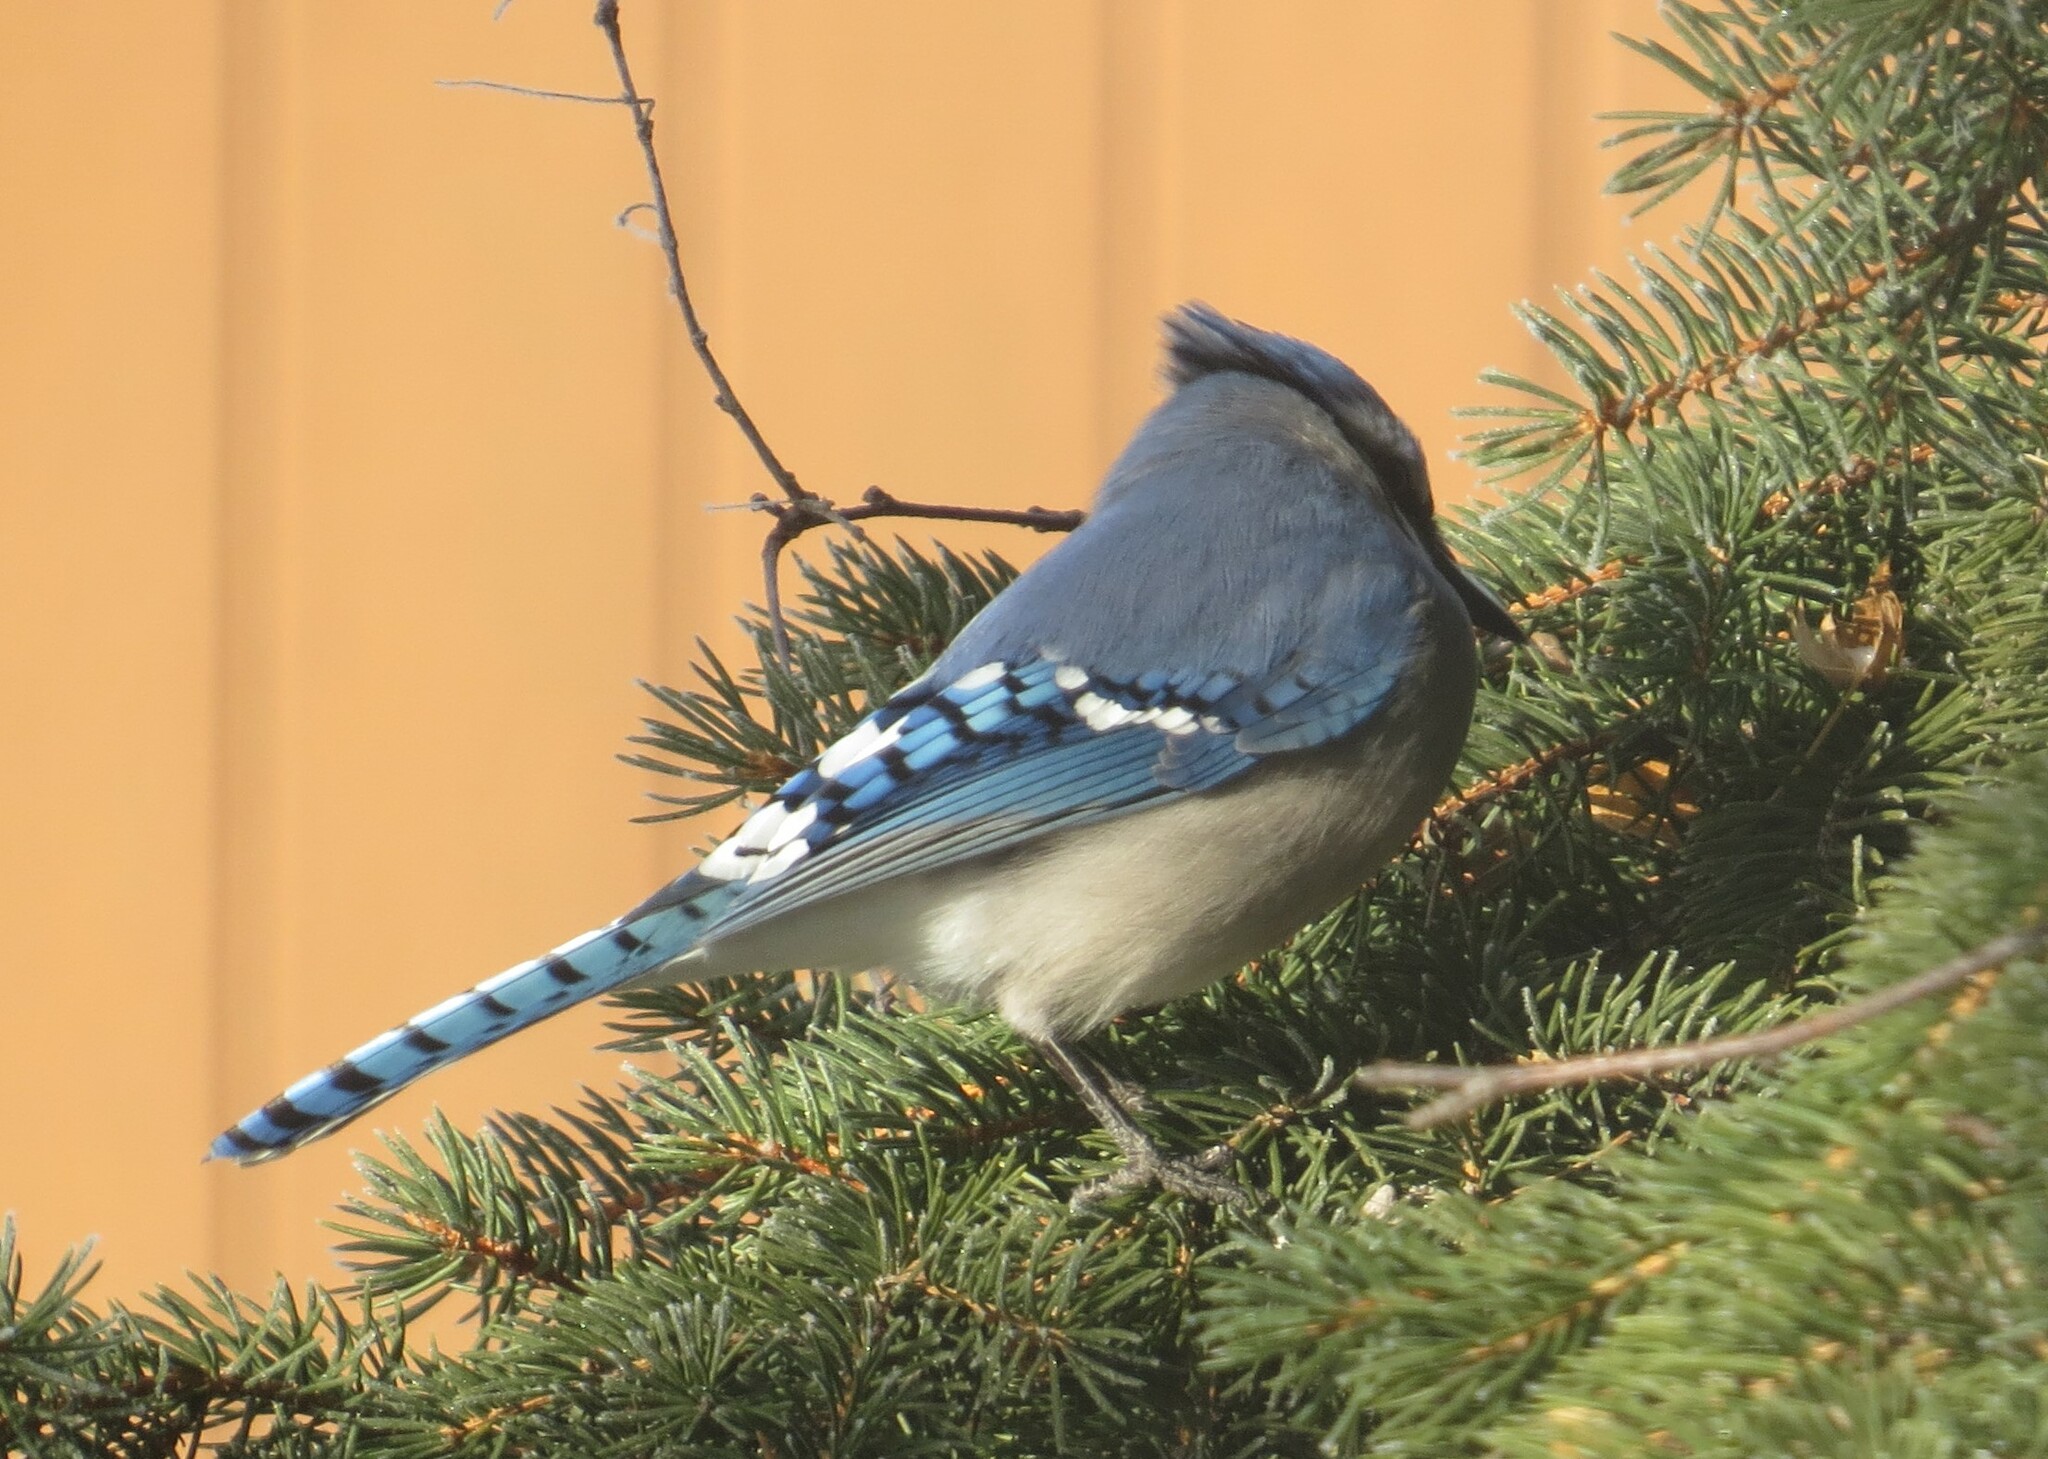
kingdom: Animalia
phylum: Chordata
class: Aves
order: Passeriformes
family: Corvidae
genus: Cyanocitta
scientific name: Cyanocitta cristata
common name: Blue jay
